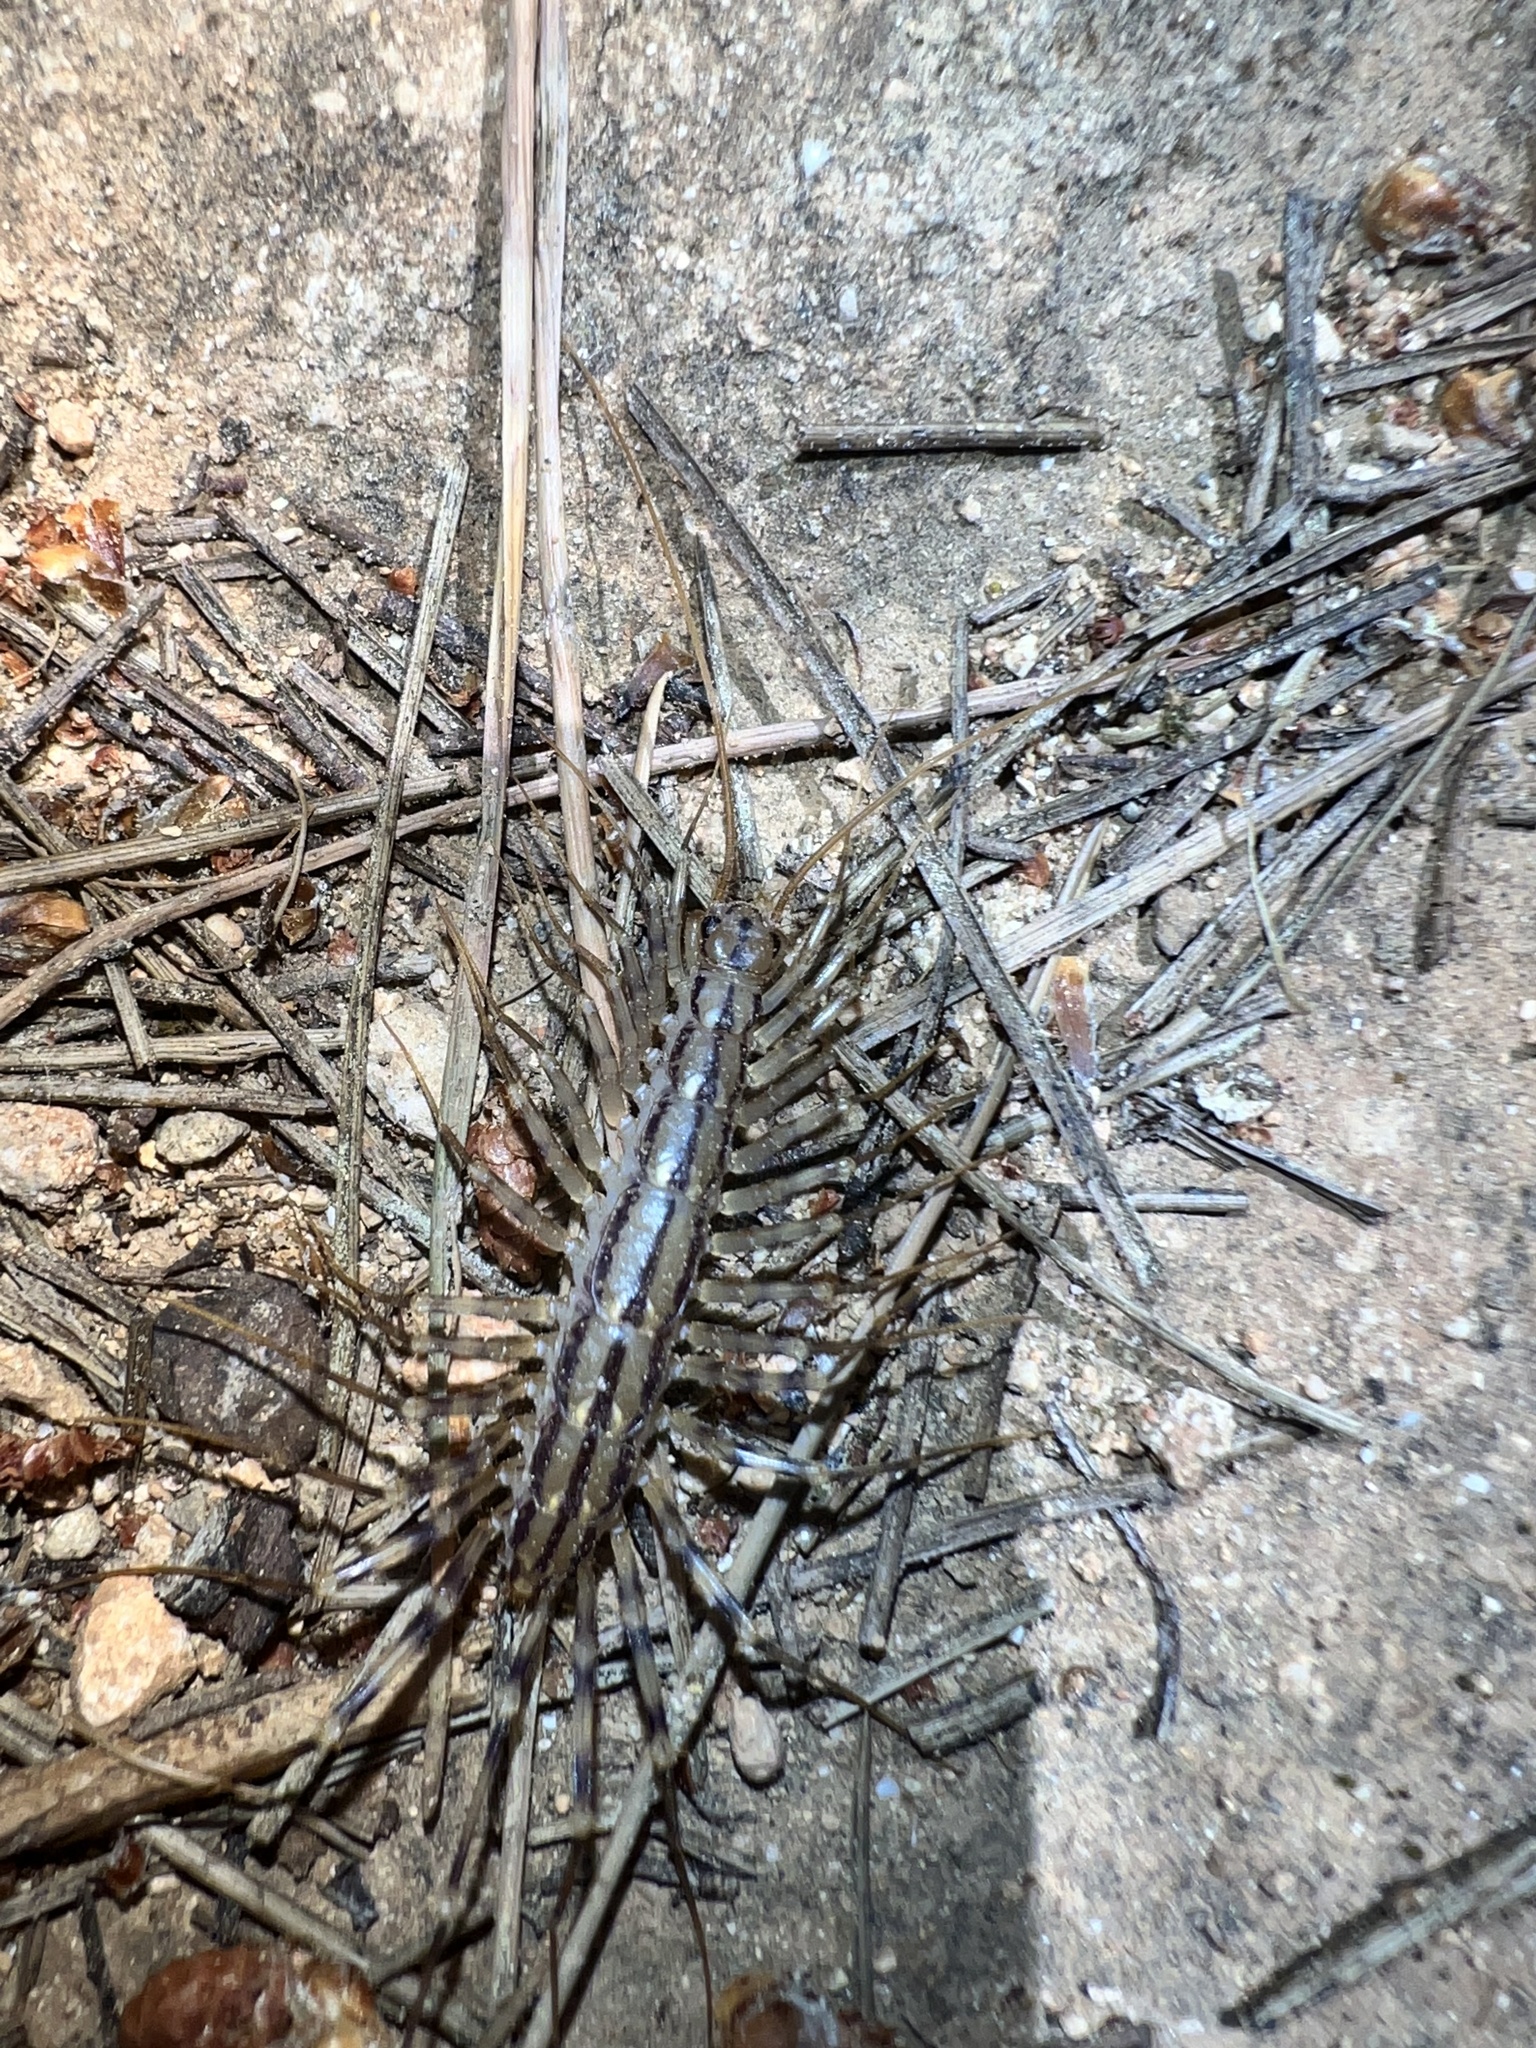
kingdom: Animalia
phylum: Arthropoda
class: Chilopoda
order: Scutigeromorpha
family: Scutigeridae
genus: Scutigera
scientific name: Scutigera coleoptrata
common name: House centipede
